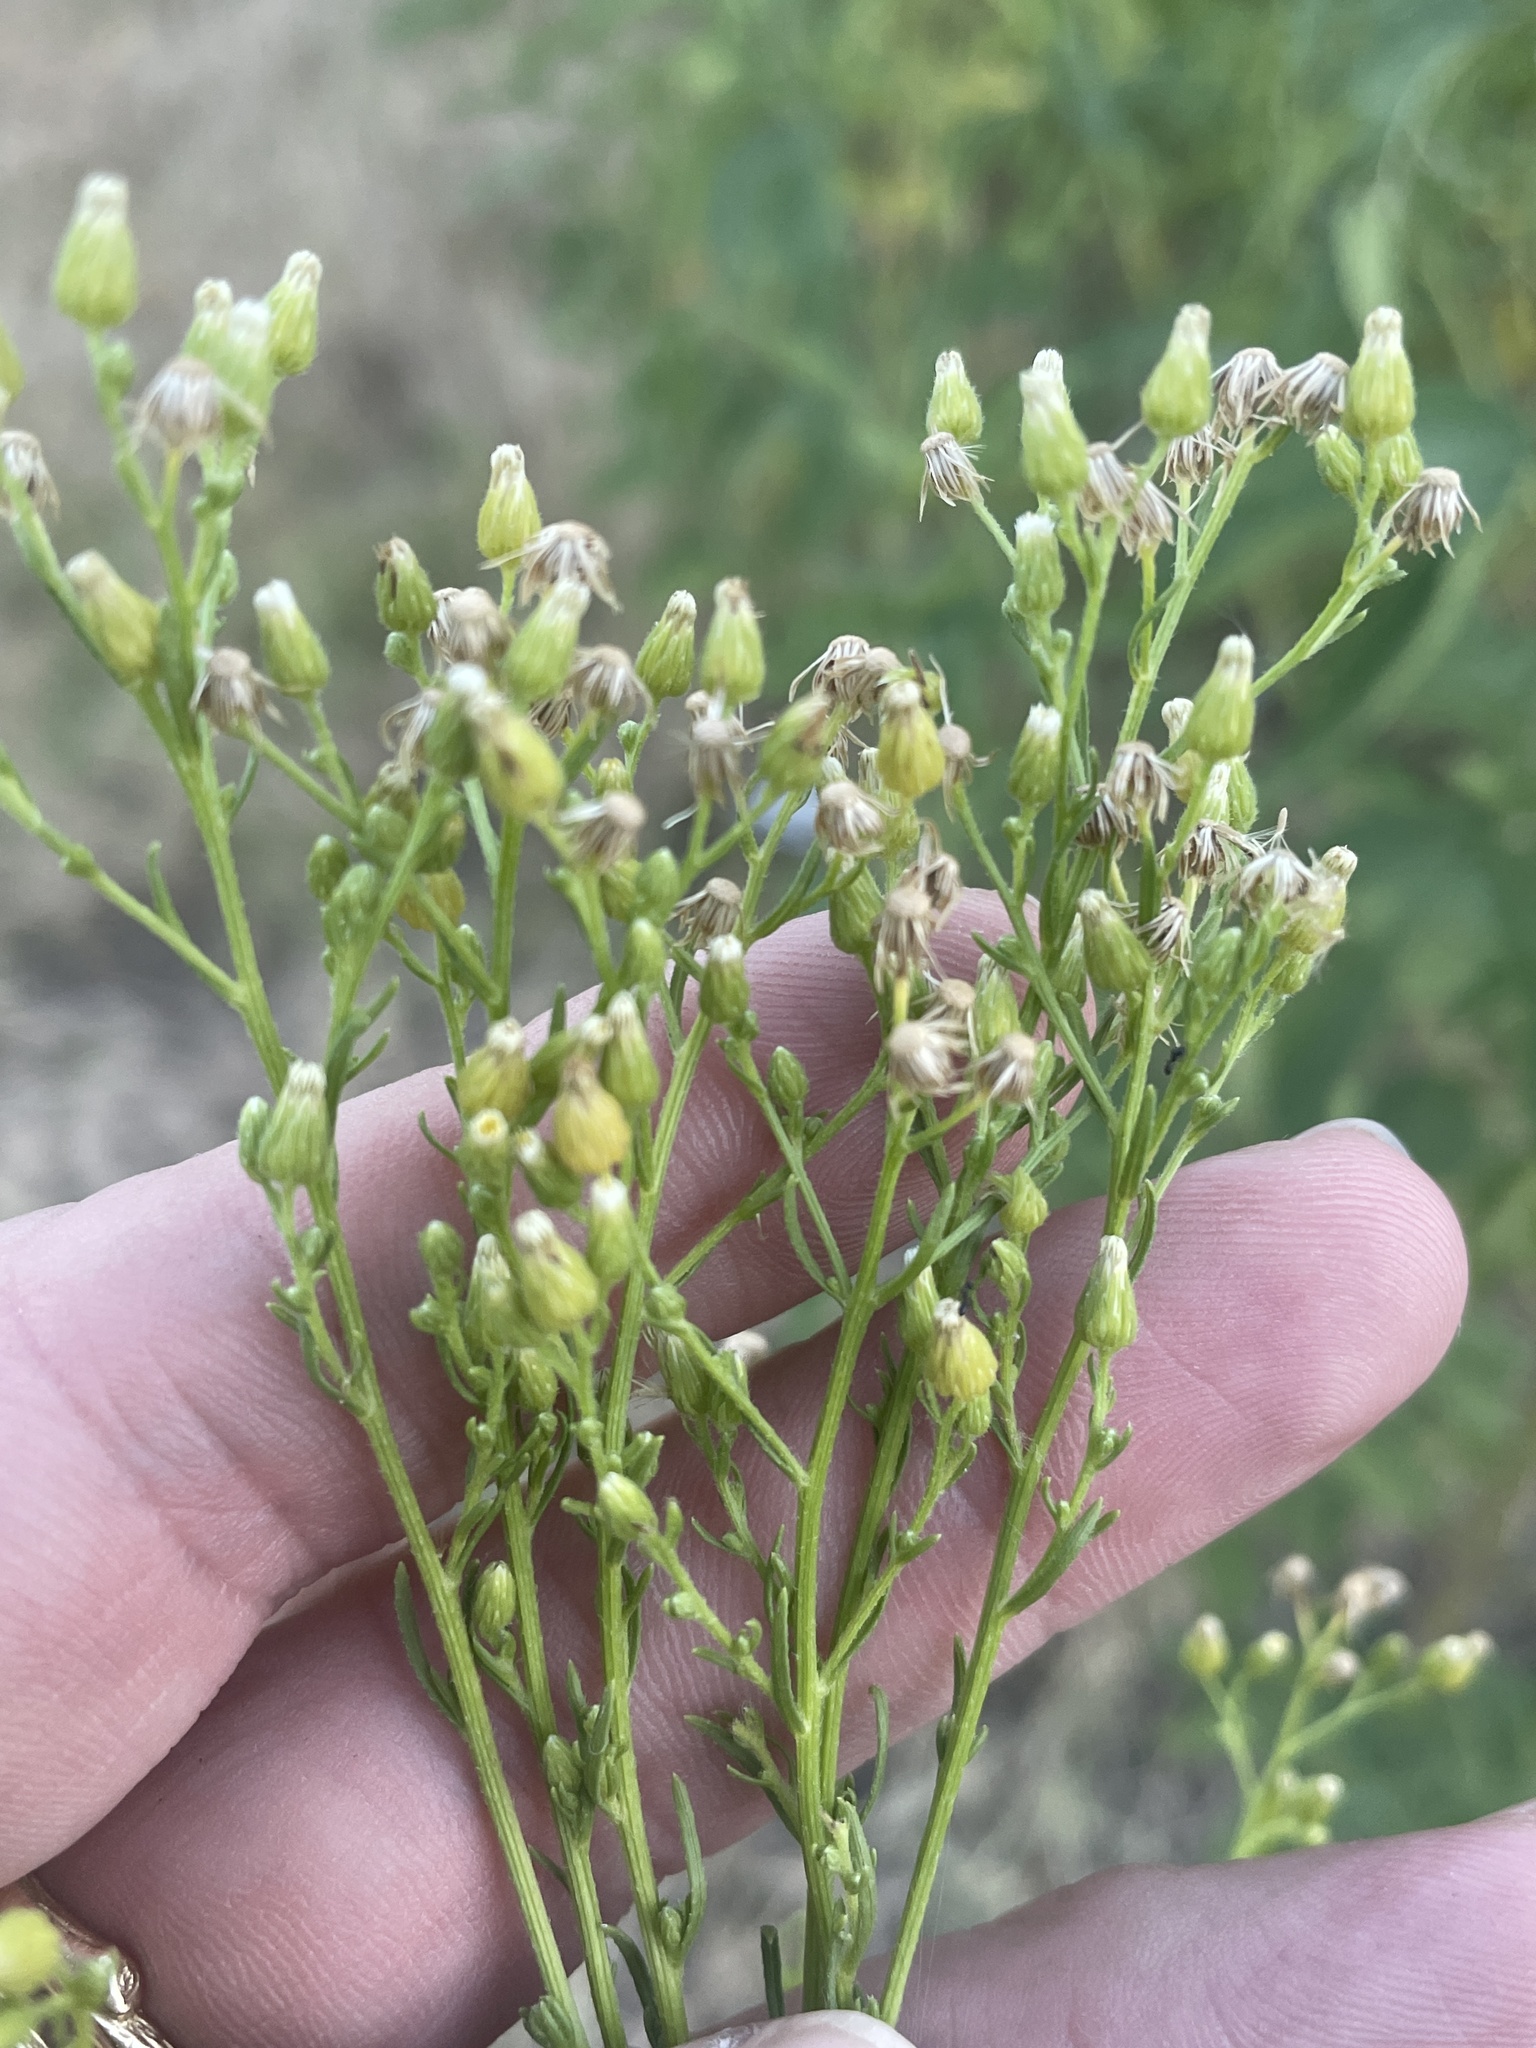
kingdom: Plantae
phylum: Tracheophyta
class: Magnoliopsida
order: Asterales
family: Asteraceae
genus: Erigeron
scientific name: Erigeron canadensis
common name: Canadian fleabane
